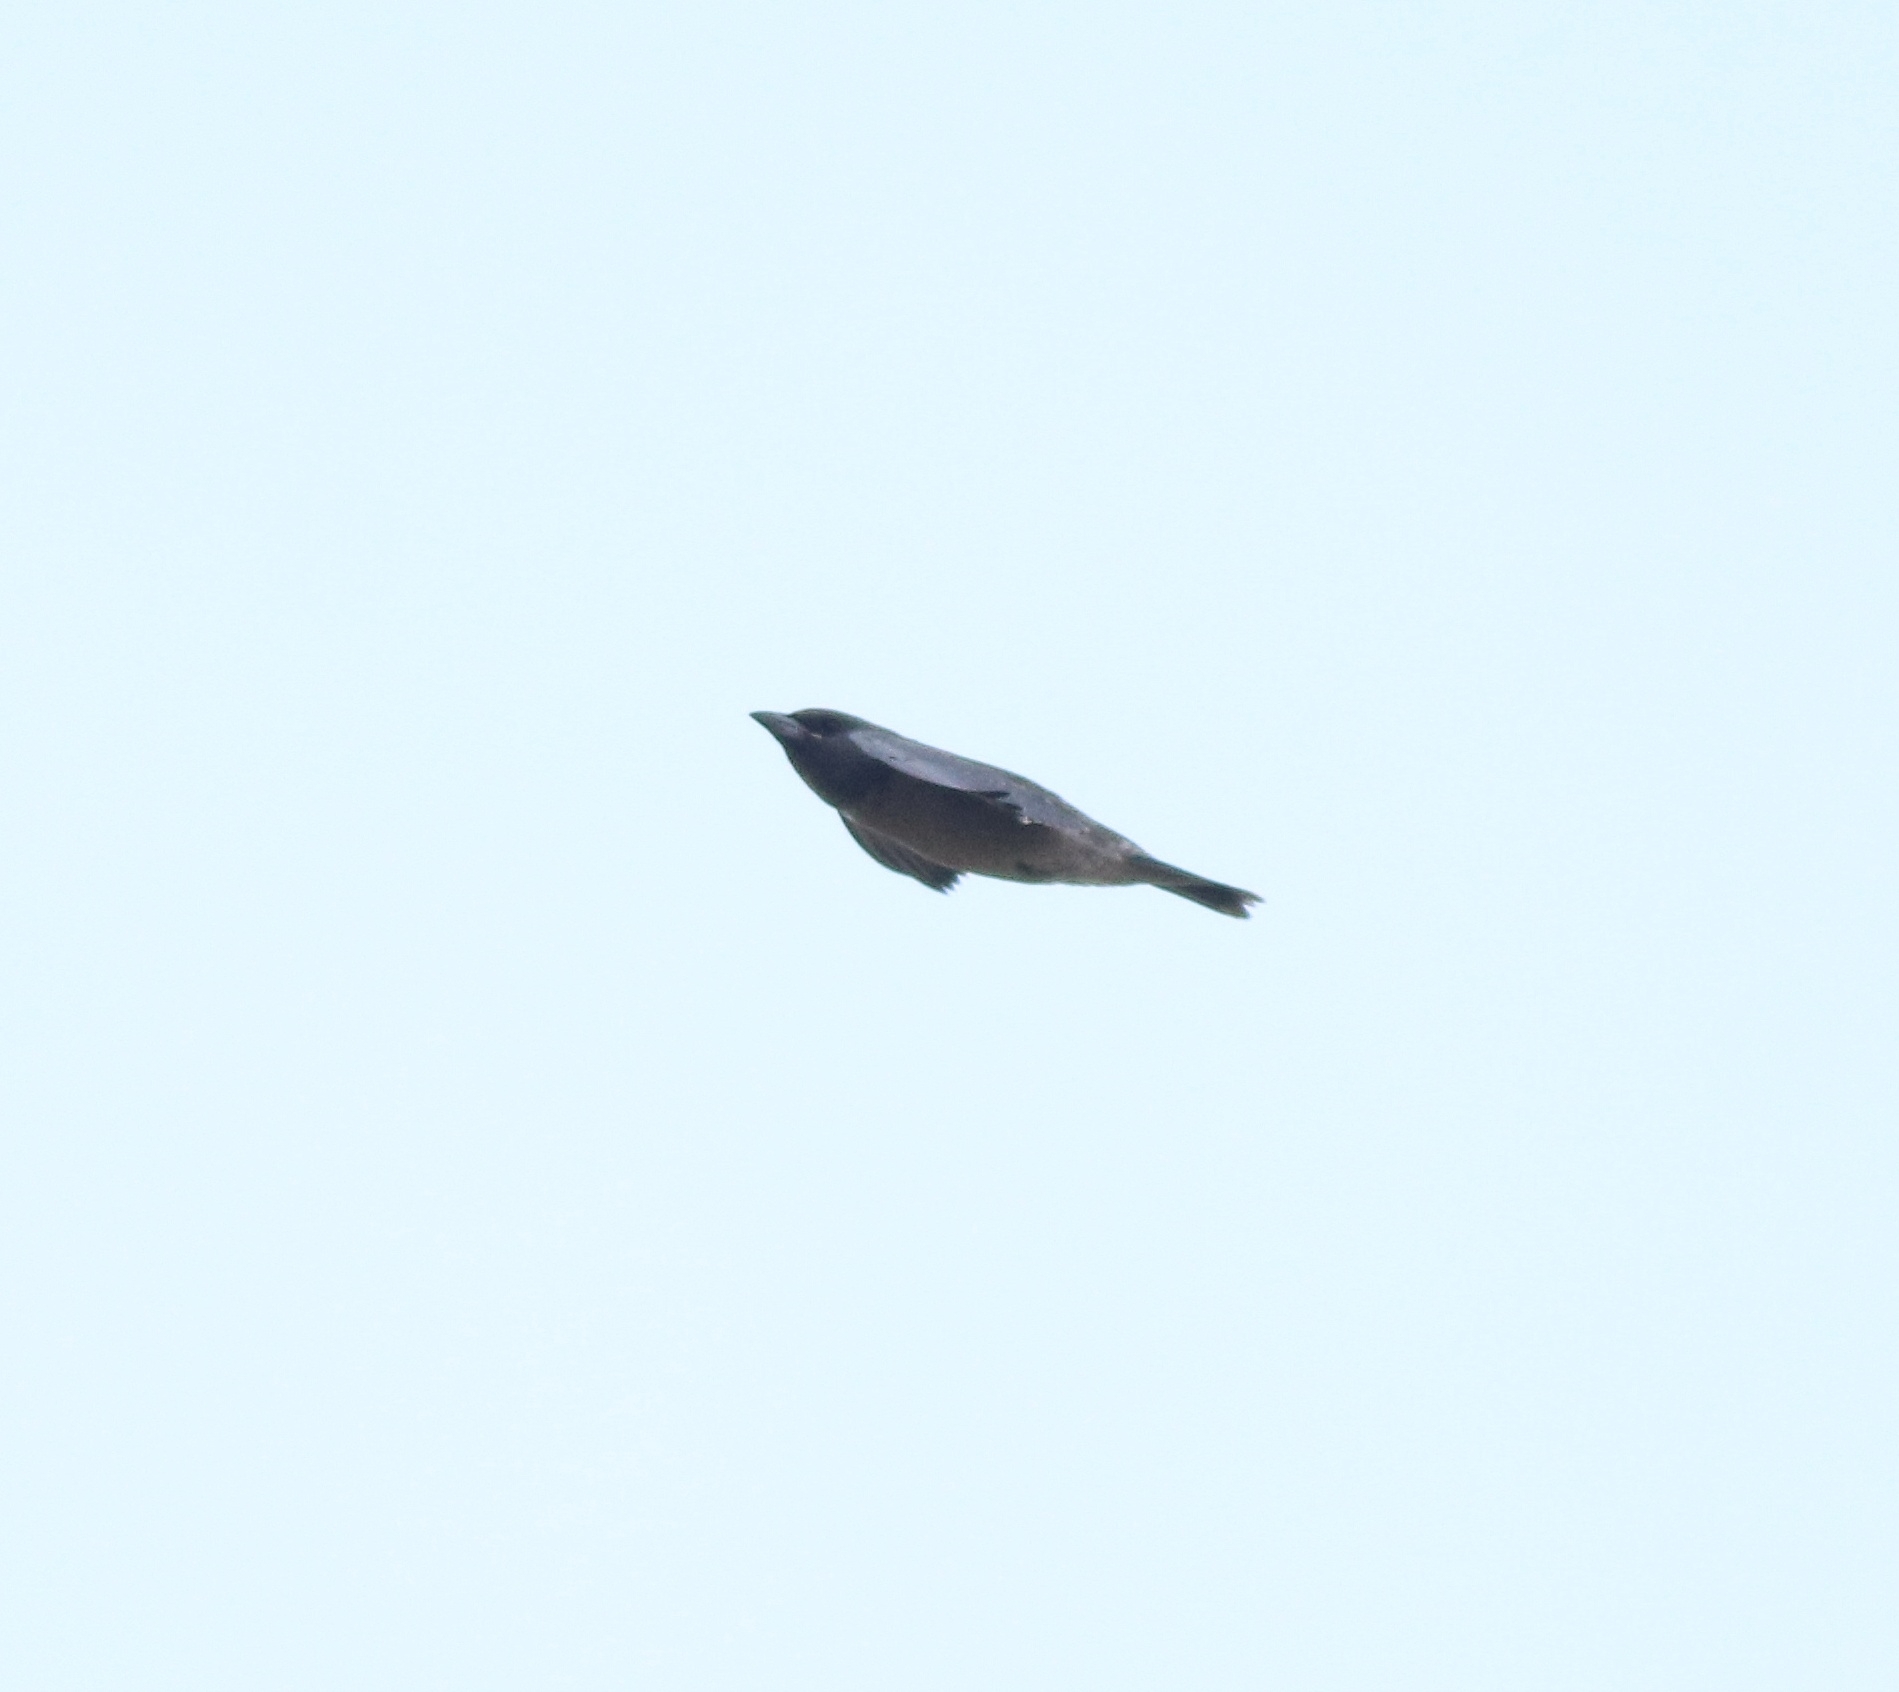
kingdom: Animalia
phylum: Chordata
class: Aves
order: Passeriformes
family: Artamidae
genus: Artamus
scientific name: Artamus fuscus
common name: Ashy woodswallow
